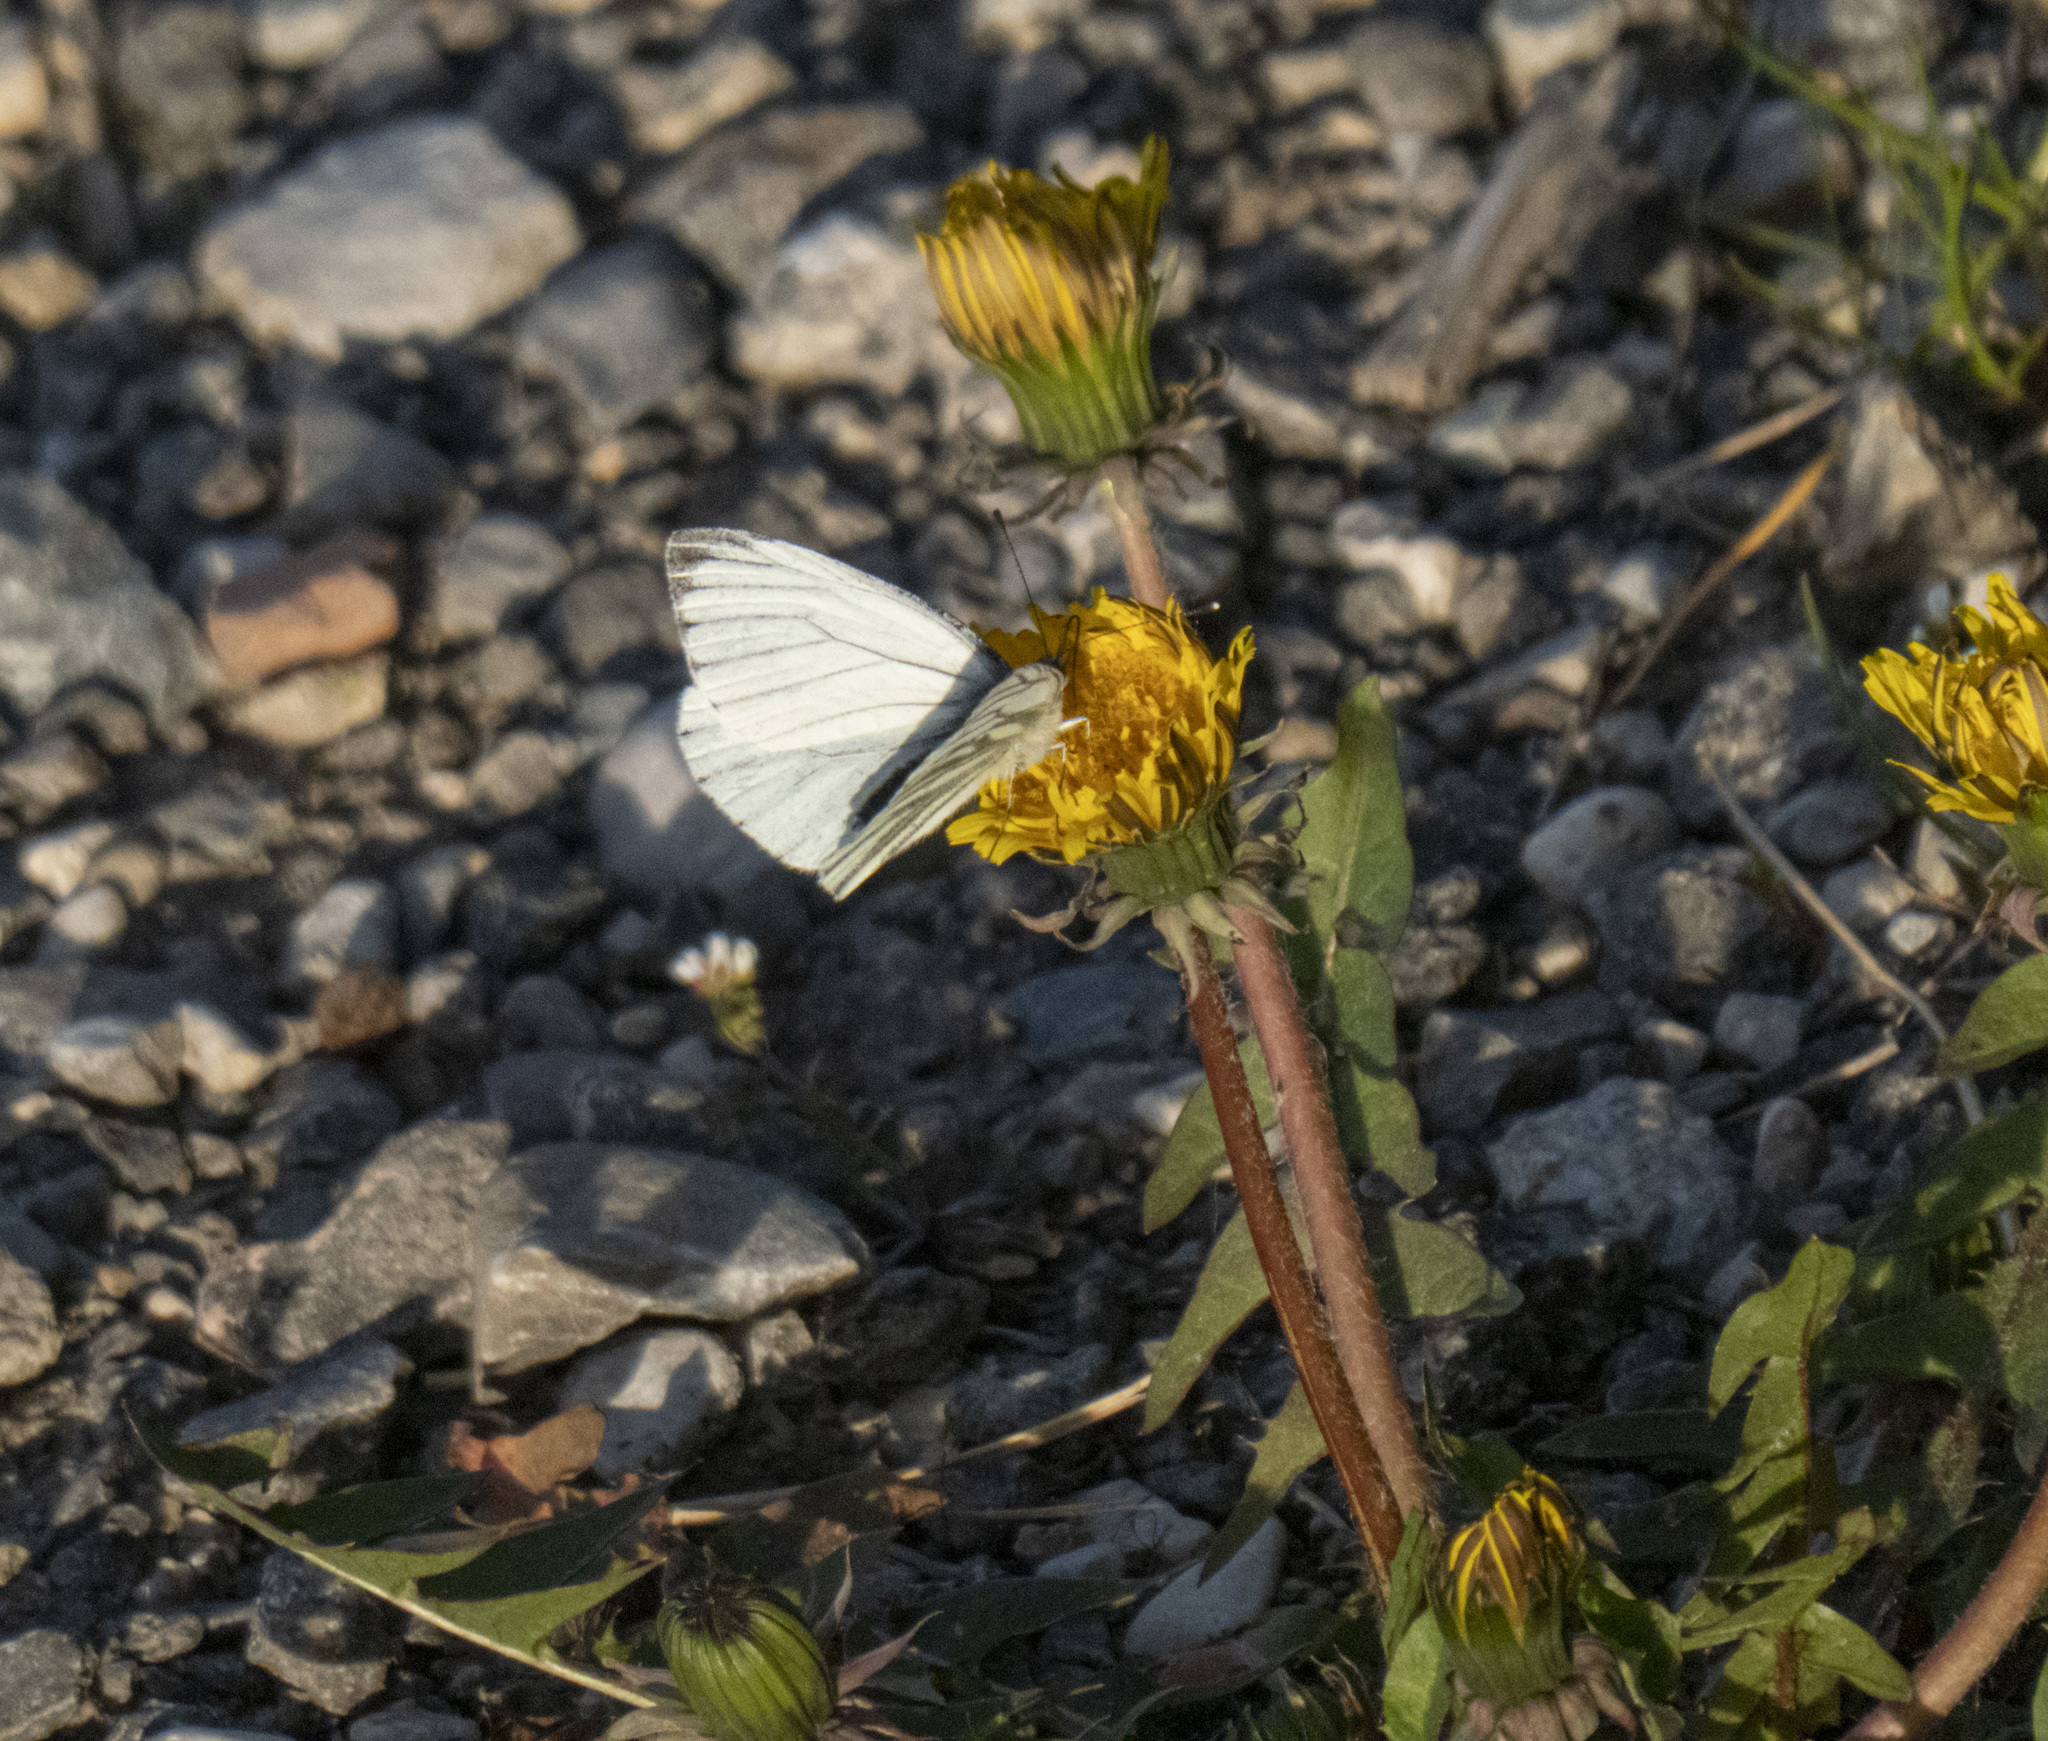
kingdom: Animalia
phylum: Arthropoda
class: Insecta
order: Lepidoptera
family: Pieridae
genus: Pieris
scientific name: Pieris napi
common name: Green-veined white
